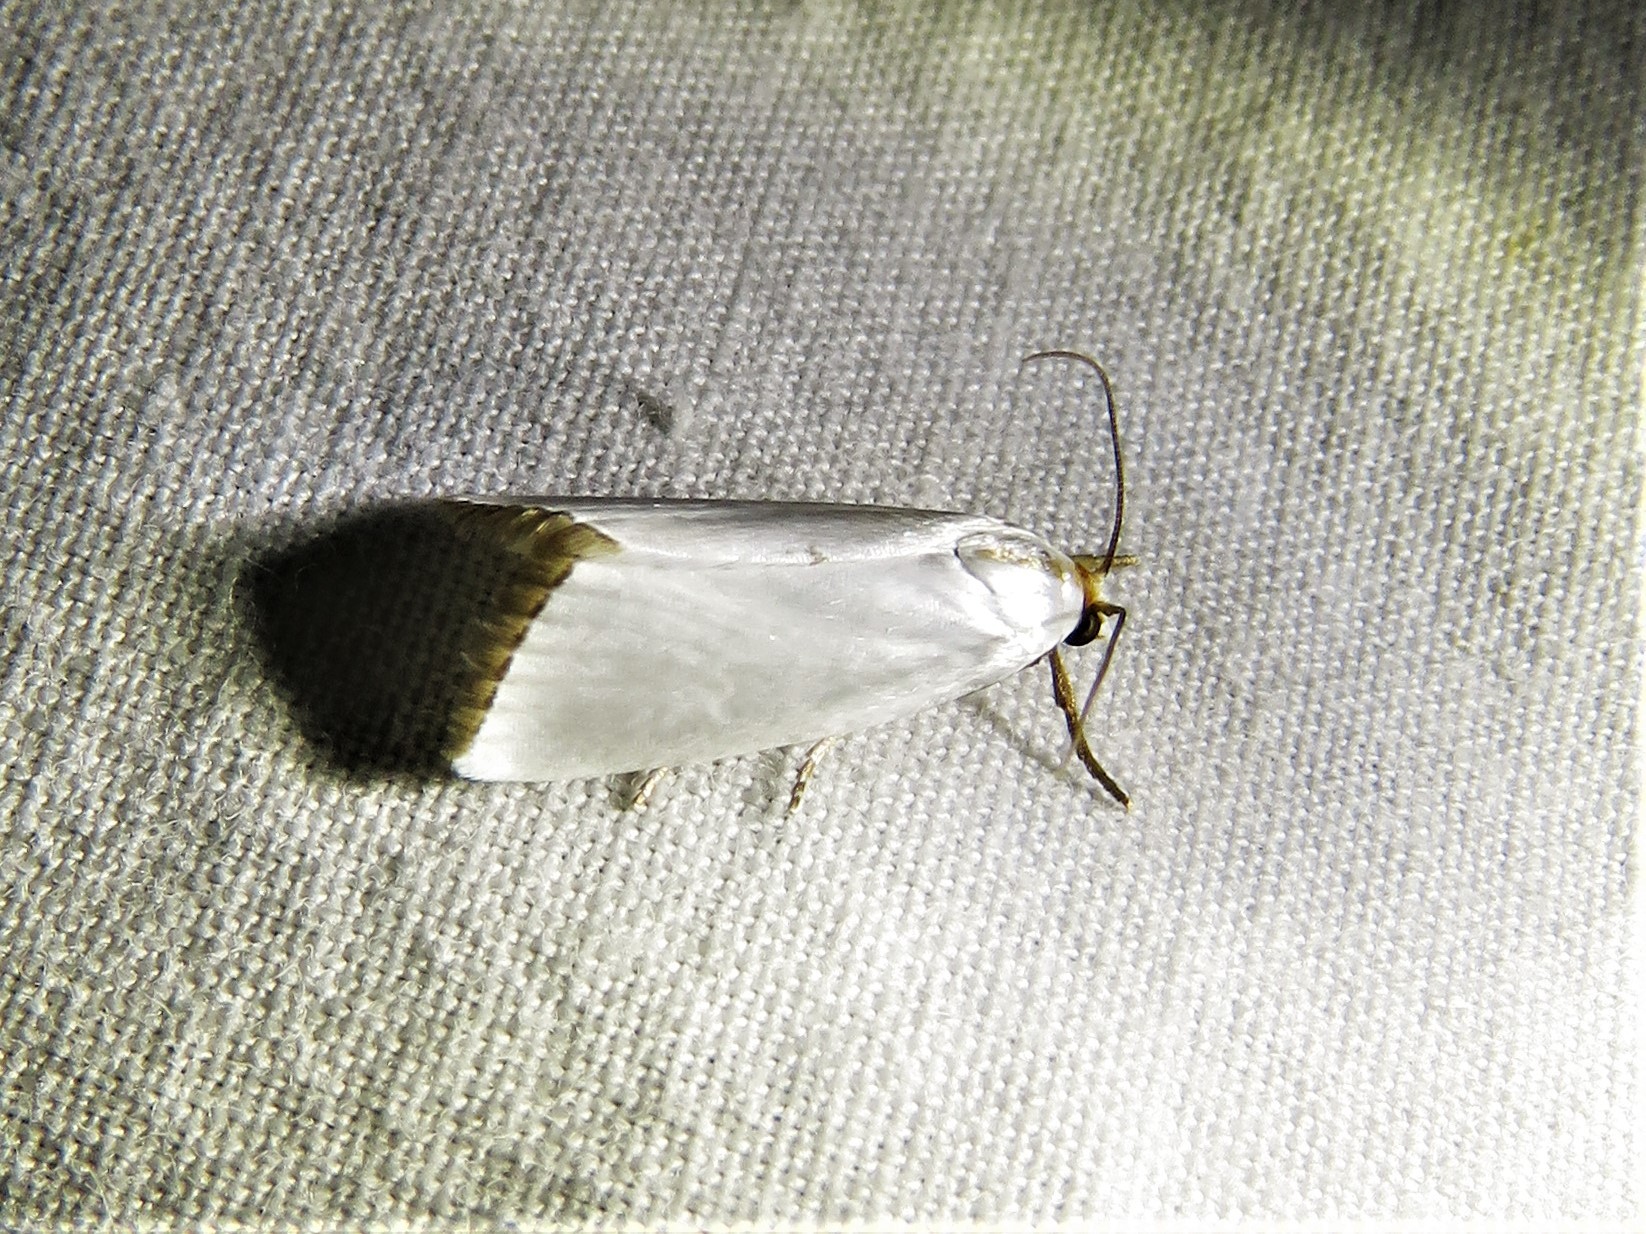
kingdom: Animalia
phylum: Arthropoda
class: Insecta
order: Lepidoptera
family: Crambidae
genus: Argyria
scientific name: Argyria nivalis
